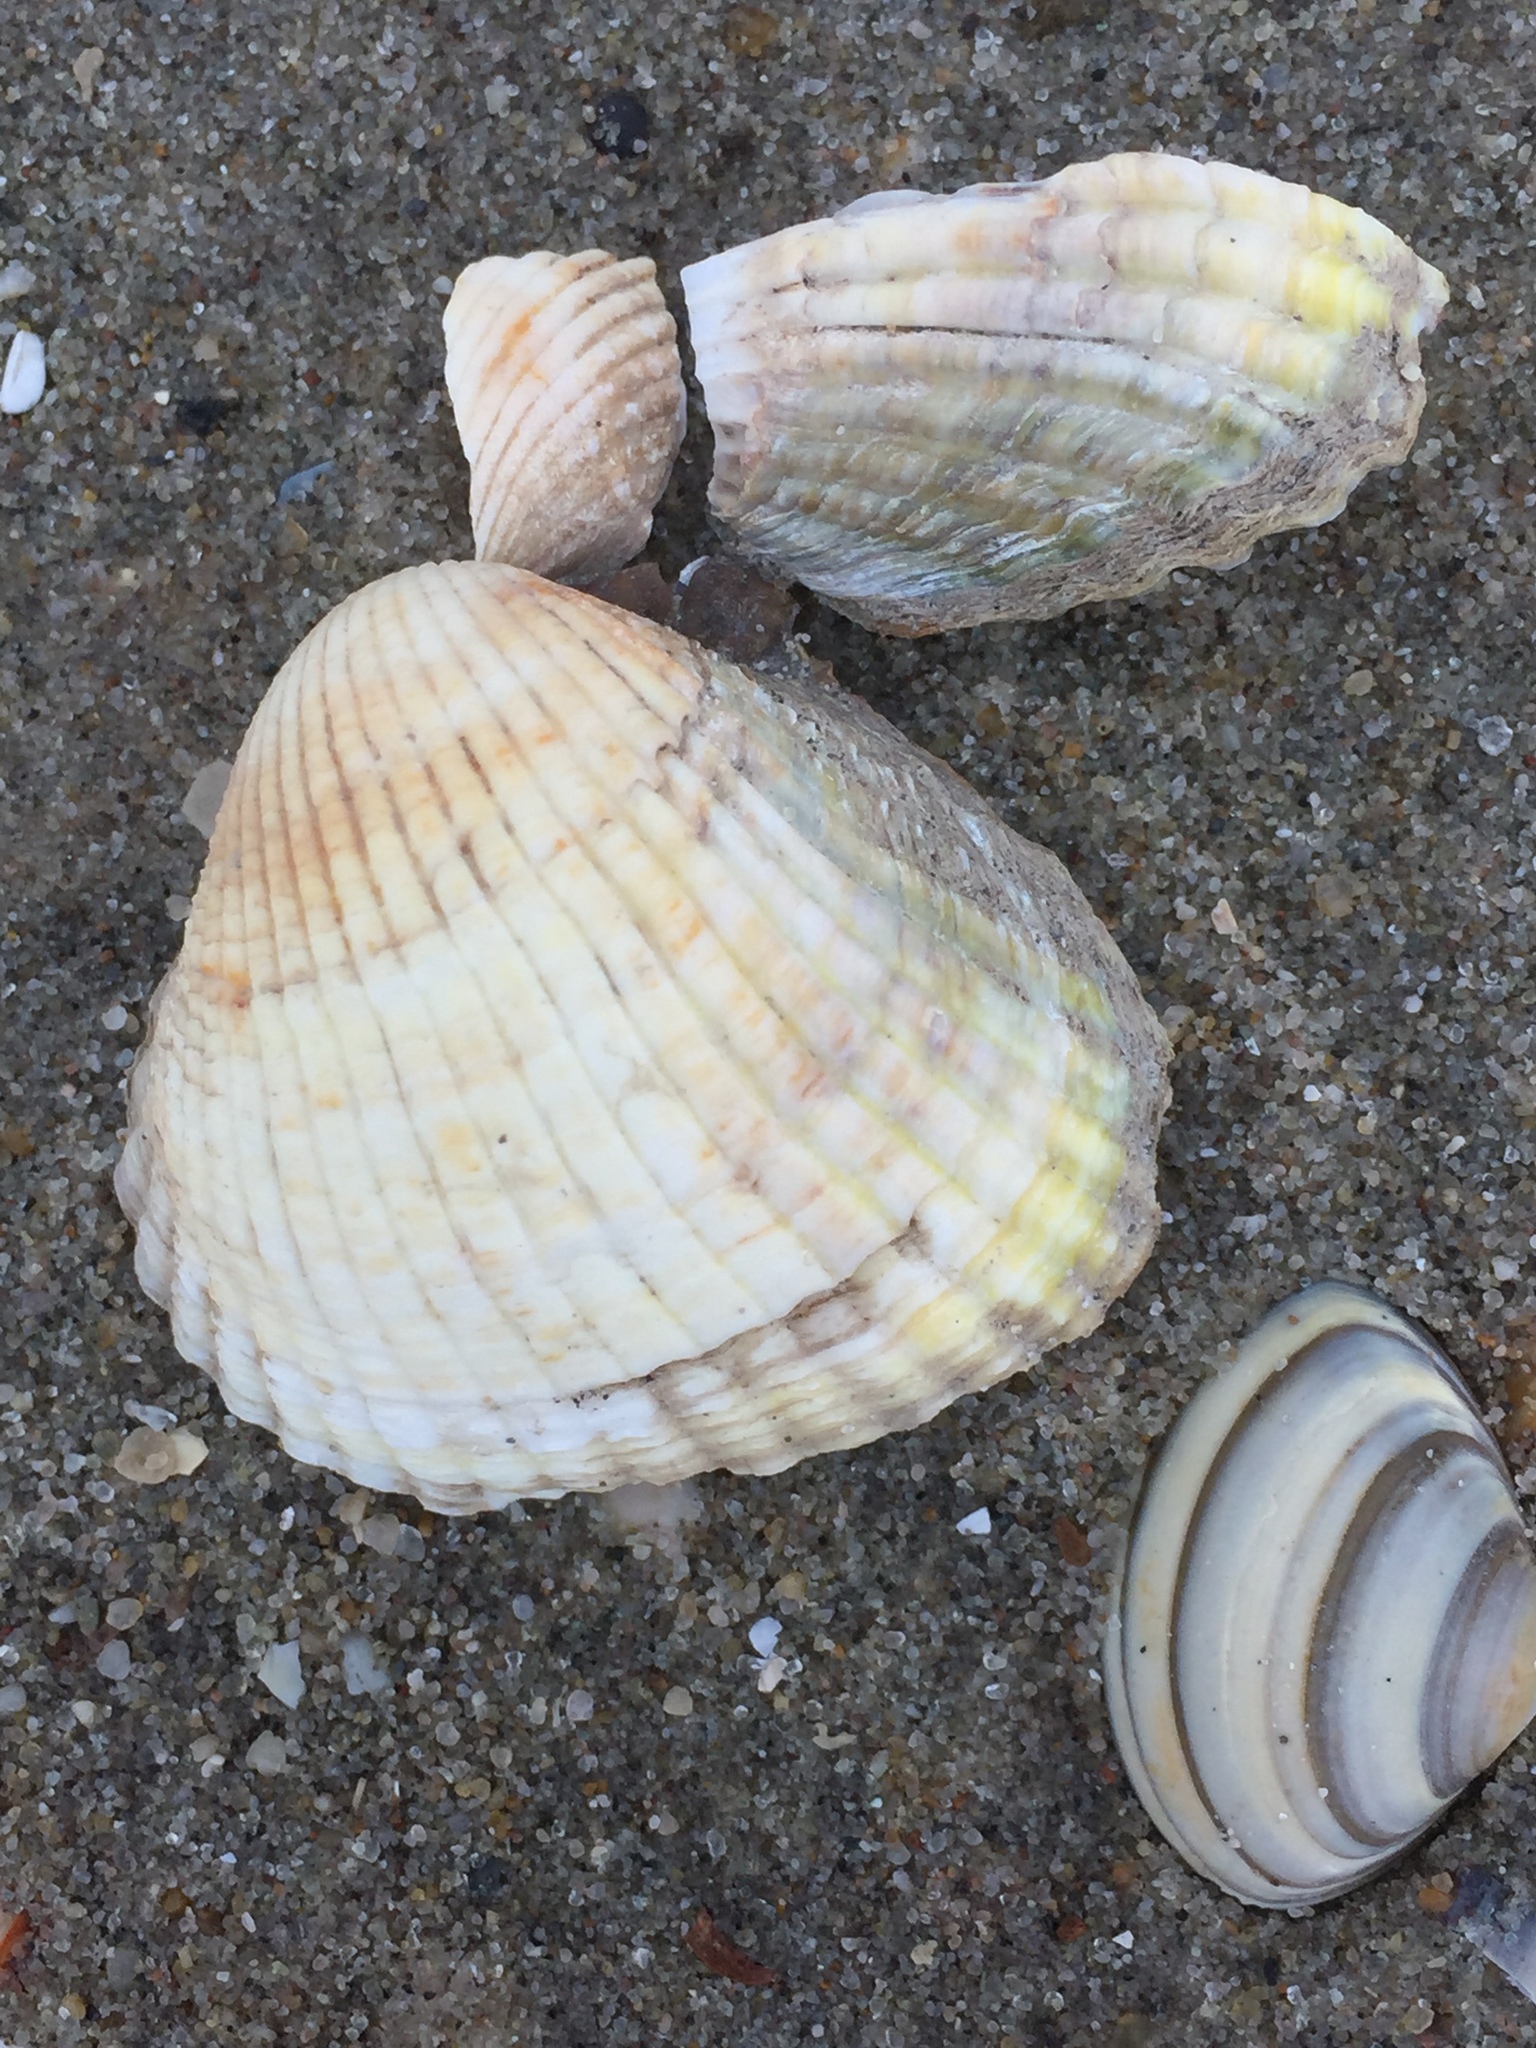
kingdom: Animalia
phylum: Mollusca
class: Bivalvia
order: Cardiida
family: Cardiidae
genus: Cerastoderma
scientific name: Cerastoderma edule
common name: Common cockle
